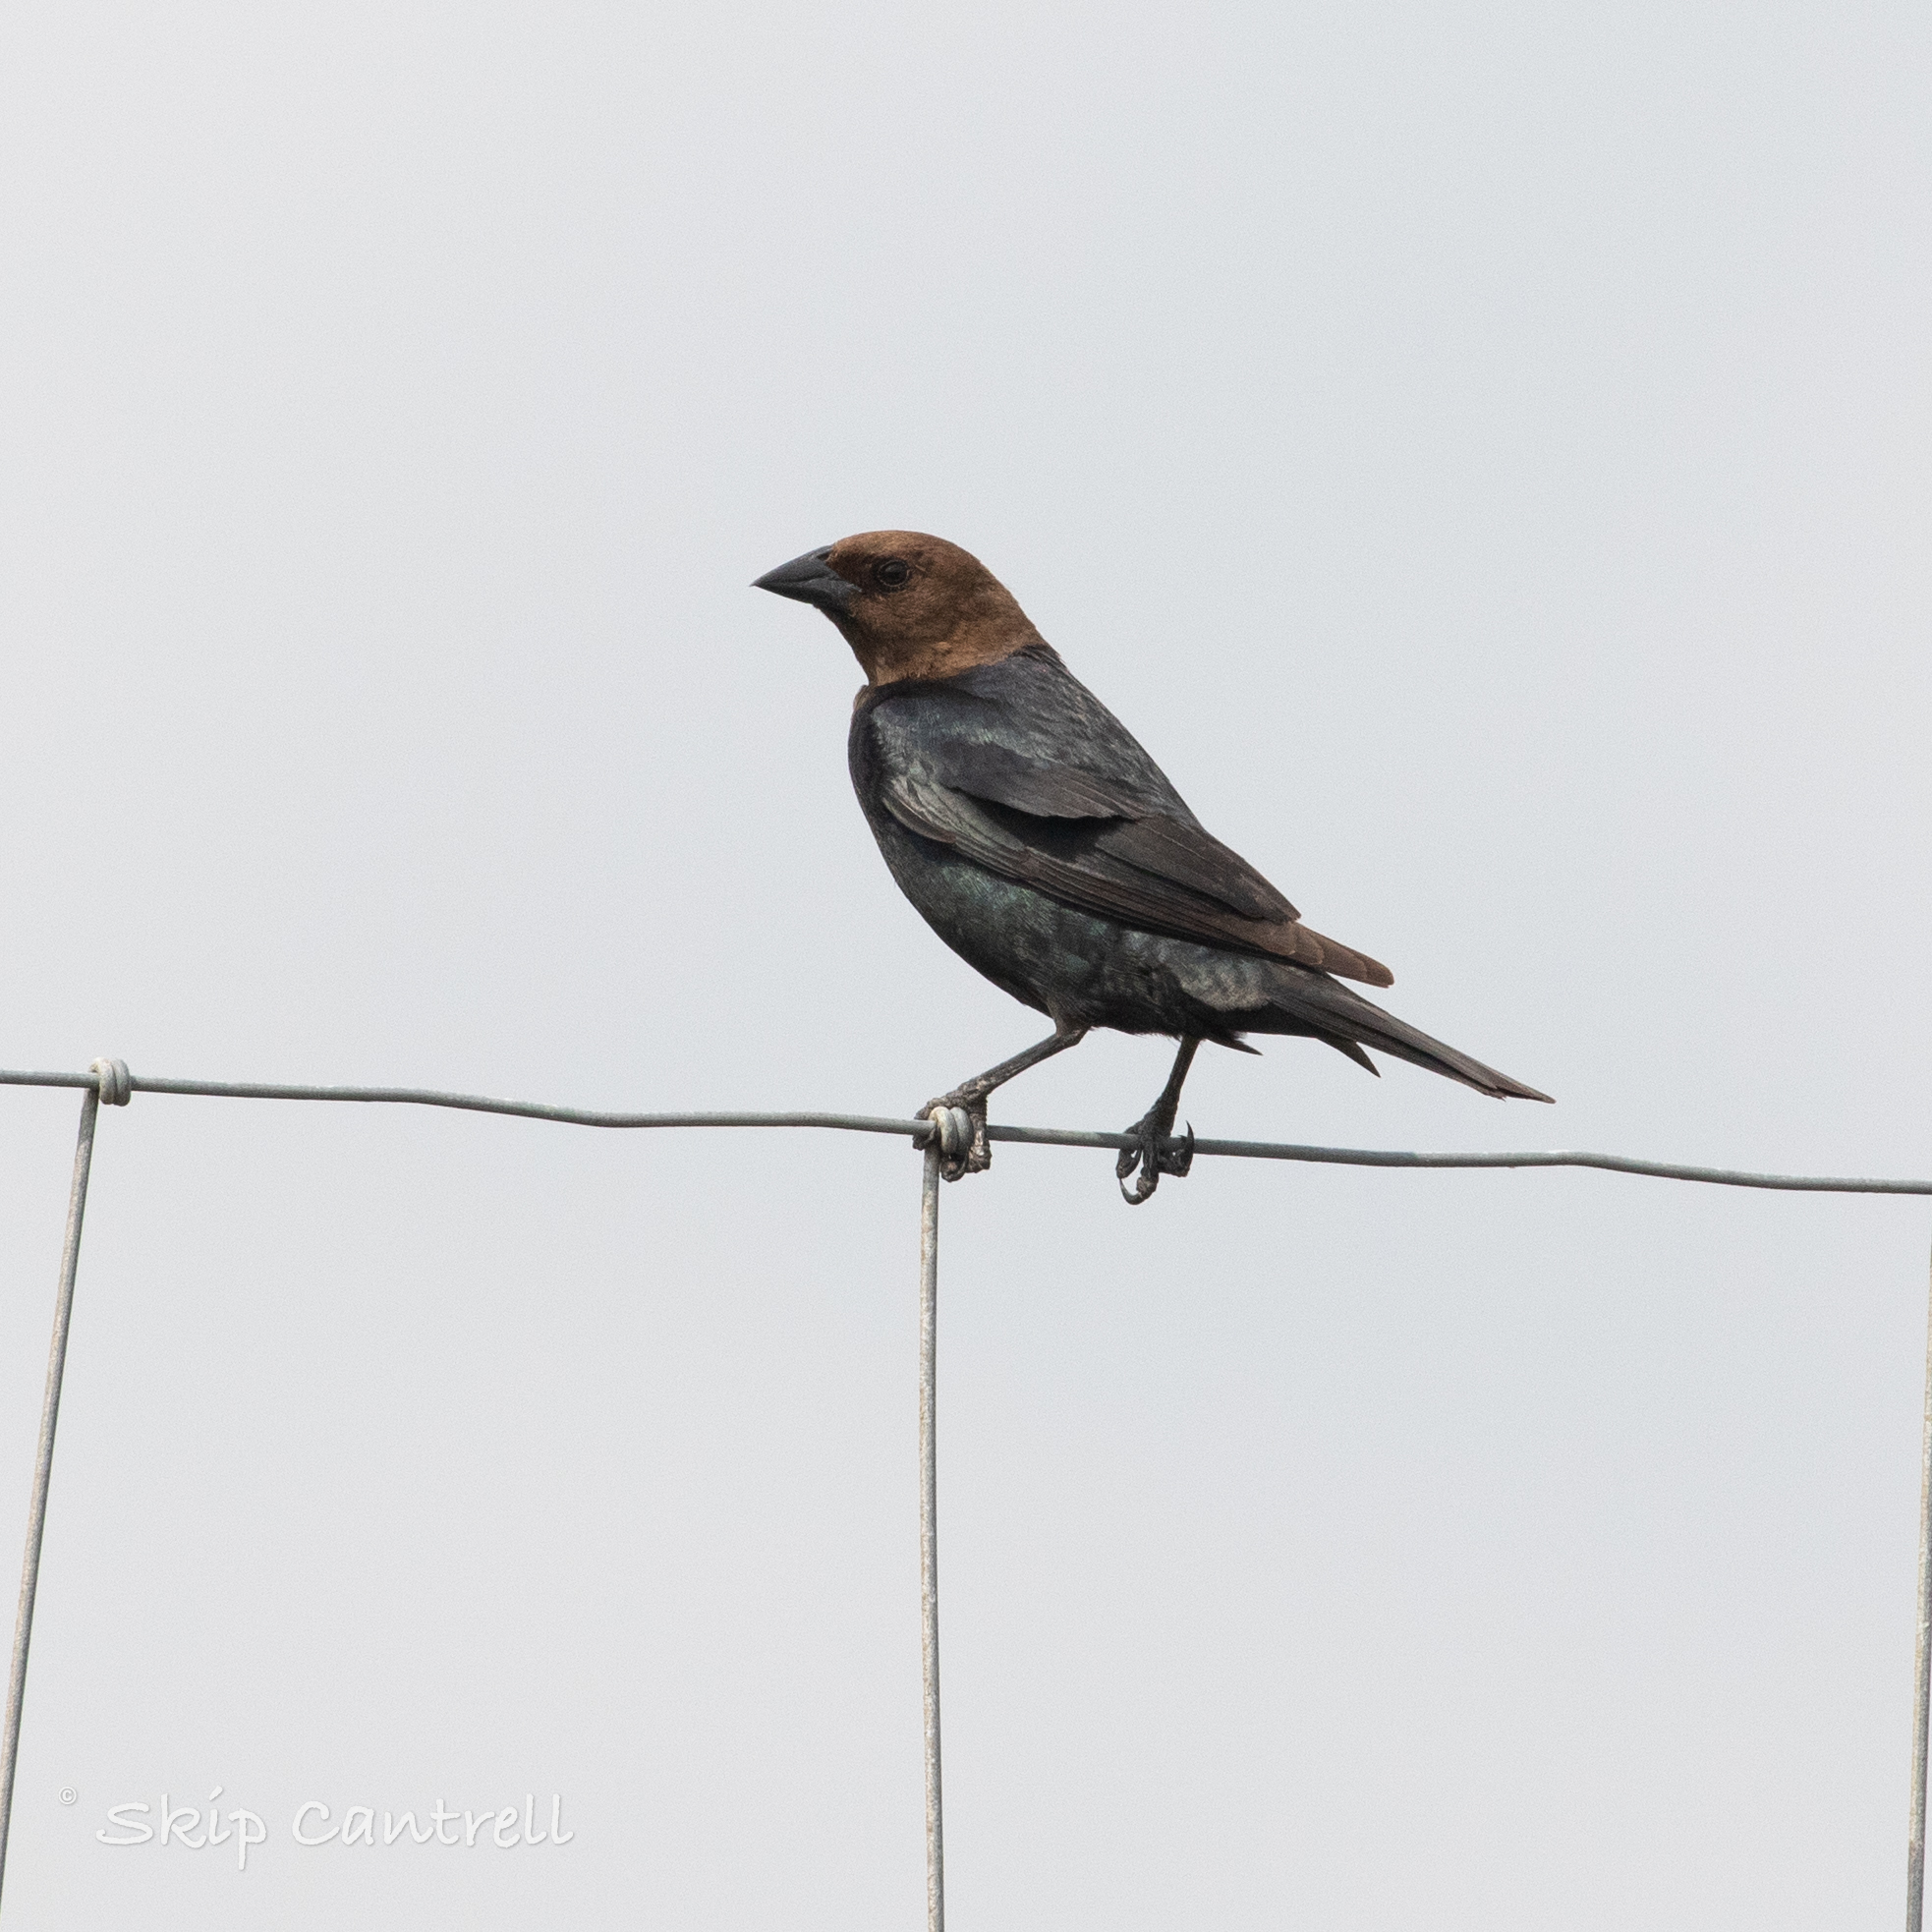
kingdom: Animalia
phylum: Chordata
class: Aves
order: Passeriformes
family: Icteridae
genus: Molothrus
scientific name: Molothrus ater
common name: Brown-headed cowbird
